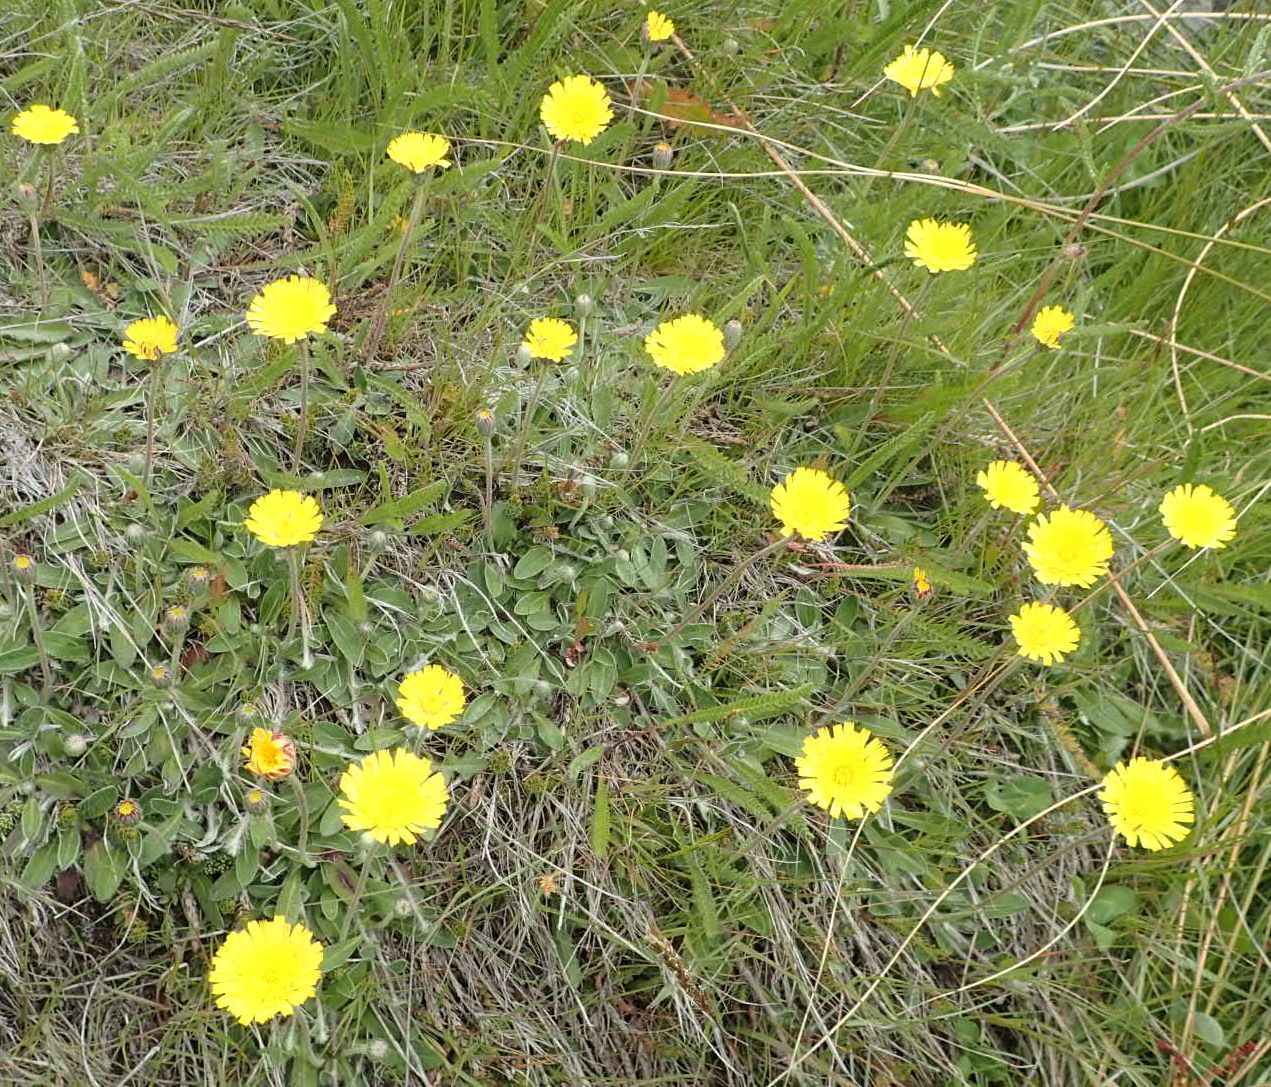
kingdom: Plantae
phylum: Tracheophyta
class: Magnoliopsida
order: Asterales
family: Asteraceae
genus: Pilosella
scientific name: Pilosella officinarum
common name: Mouse-ear hawkweed
